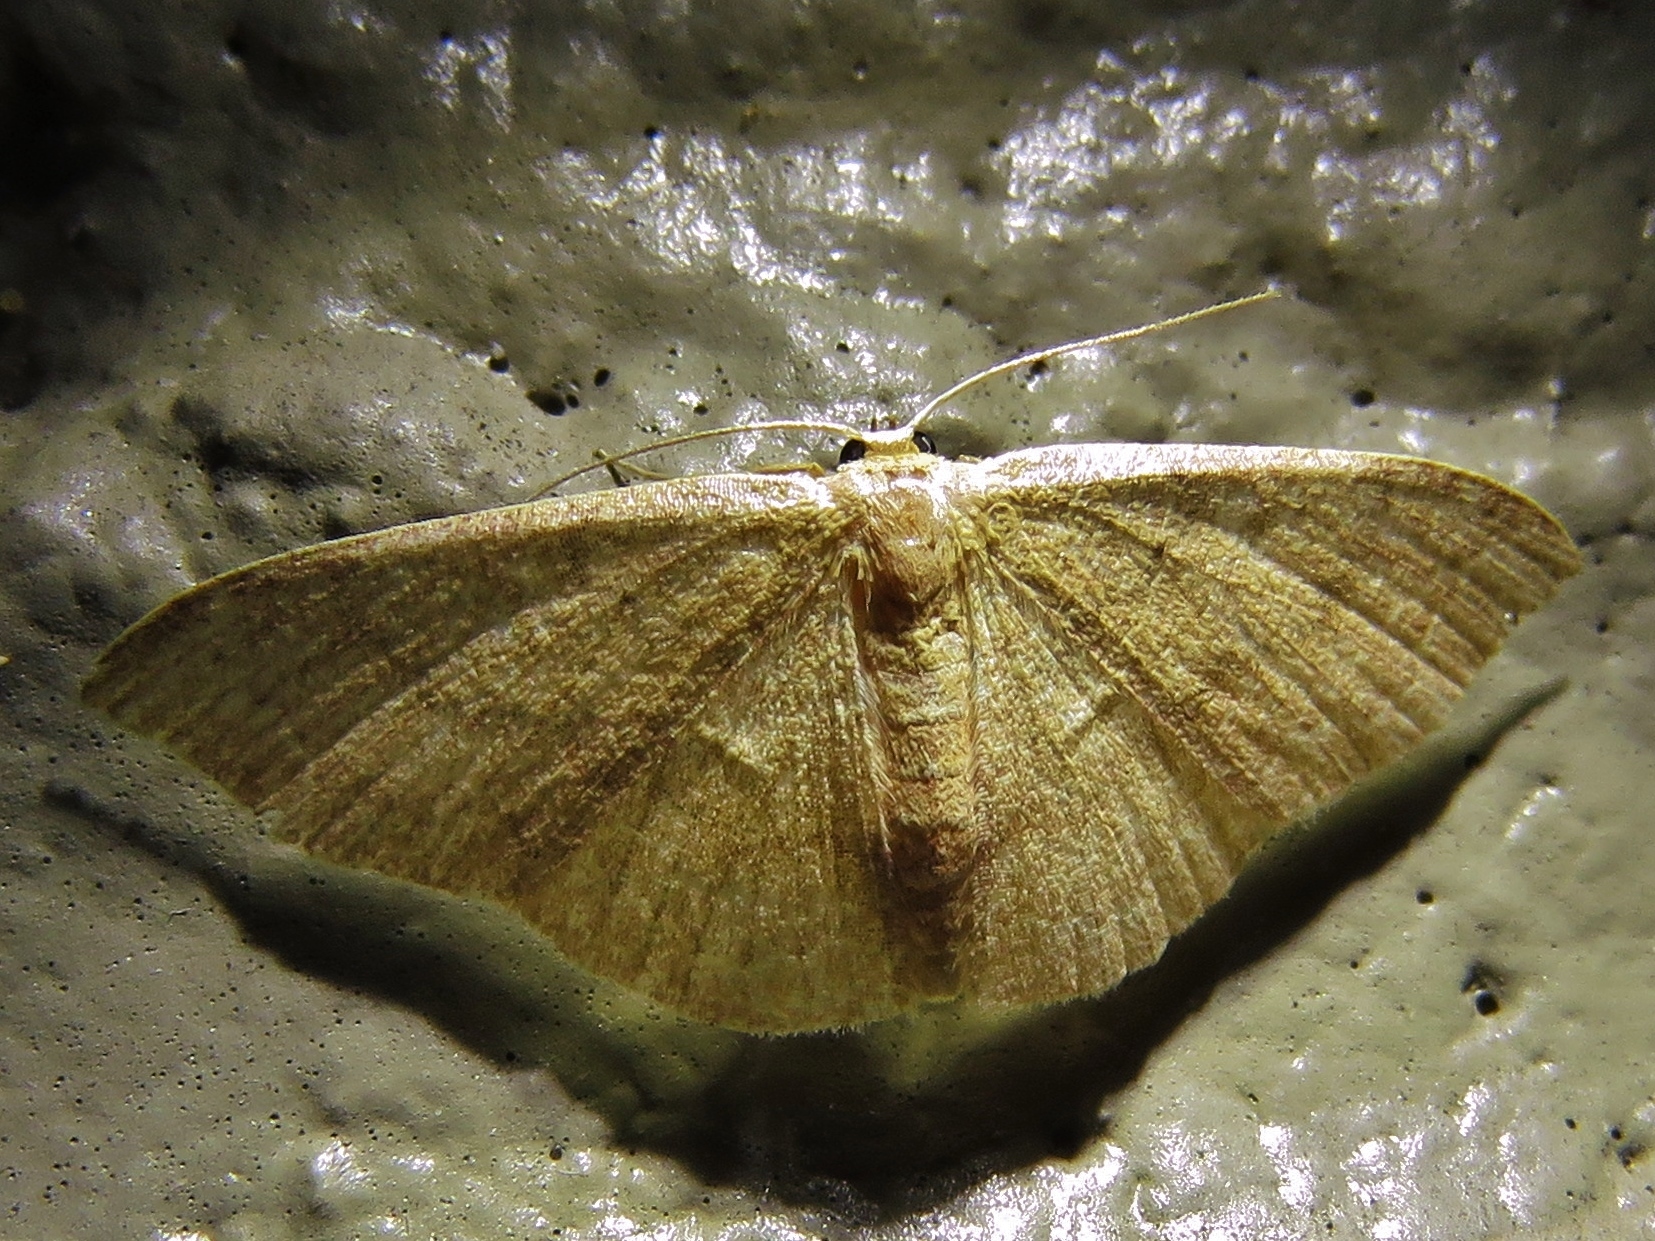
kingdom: Animalia
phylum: Arthropoda
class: Insecta
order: Lepidoptera
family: Geometridae
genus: Pleuroprucha
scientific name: Pleuroprucha insulsaria
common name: Common tan wave
